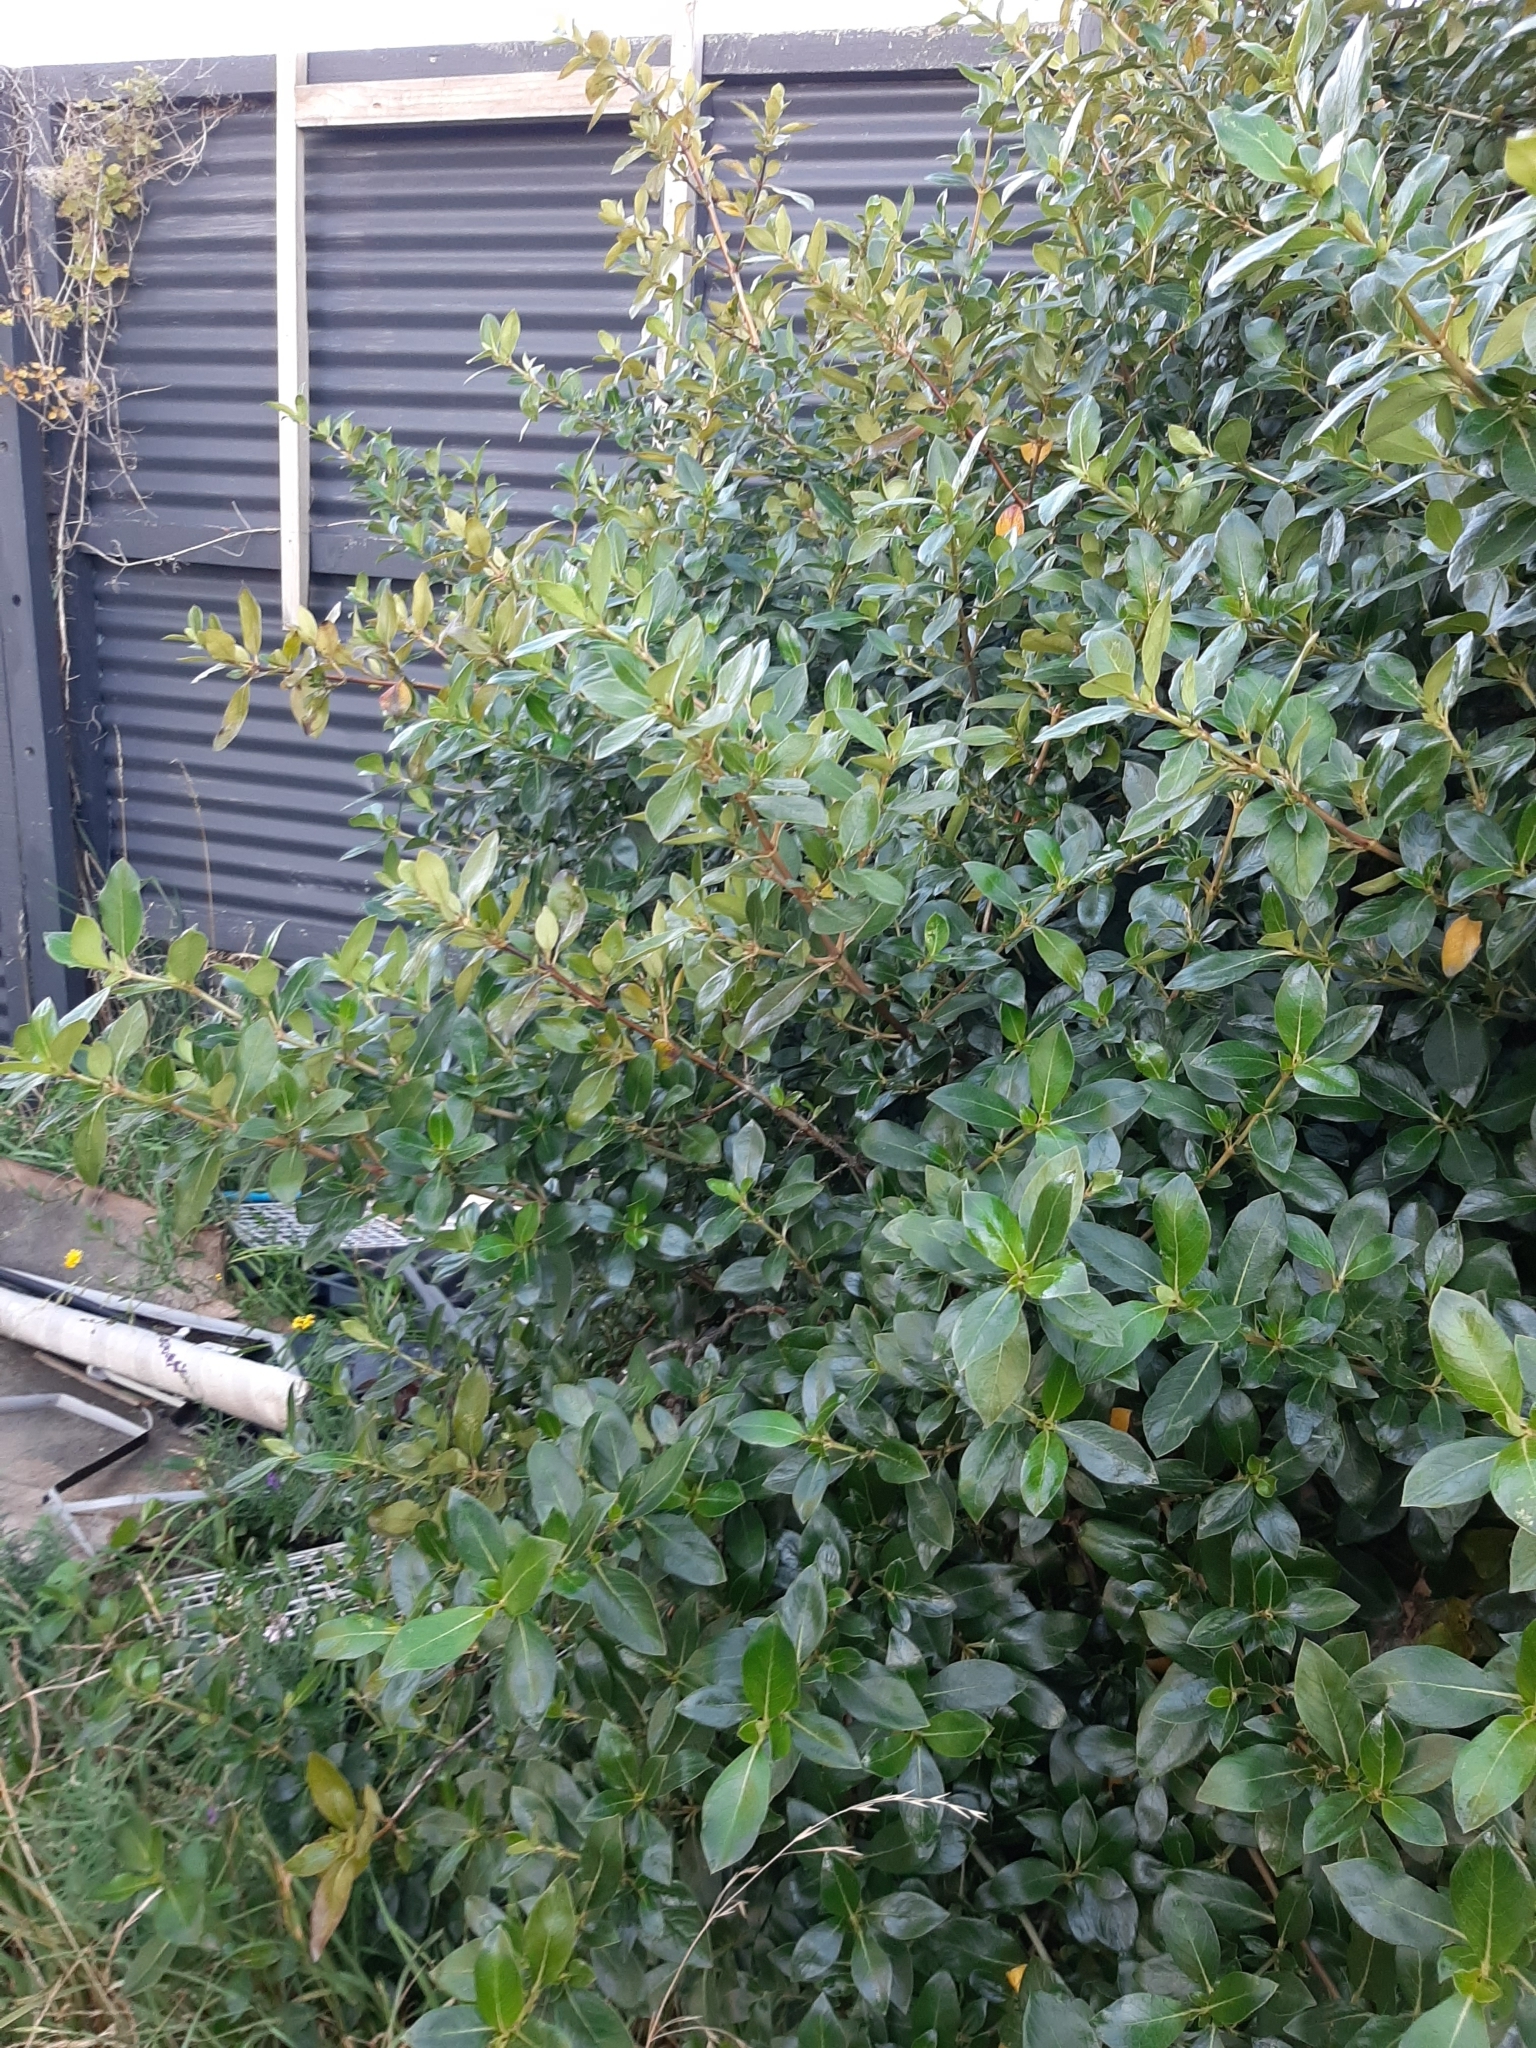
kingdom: Plantae
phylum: Tracheophyta
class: Magnoliopsida
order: Gentianales
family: Rubiaceae
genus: Coprosma
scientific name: Coprosma robusta
